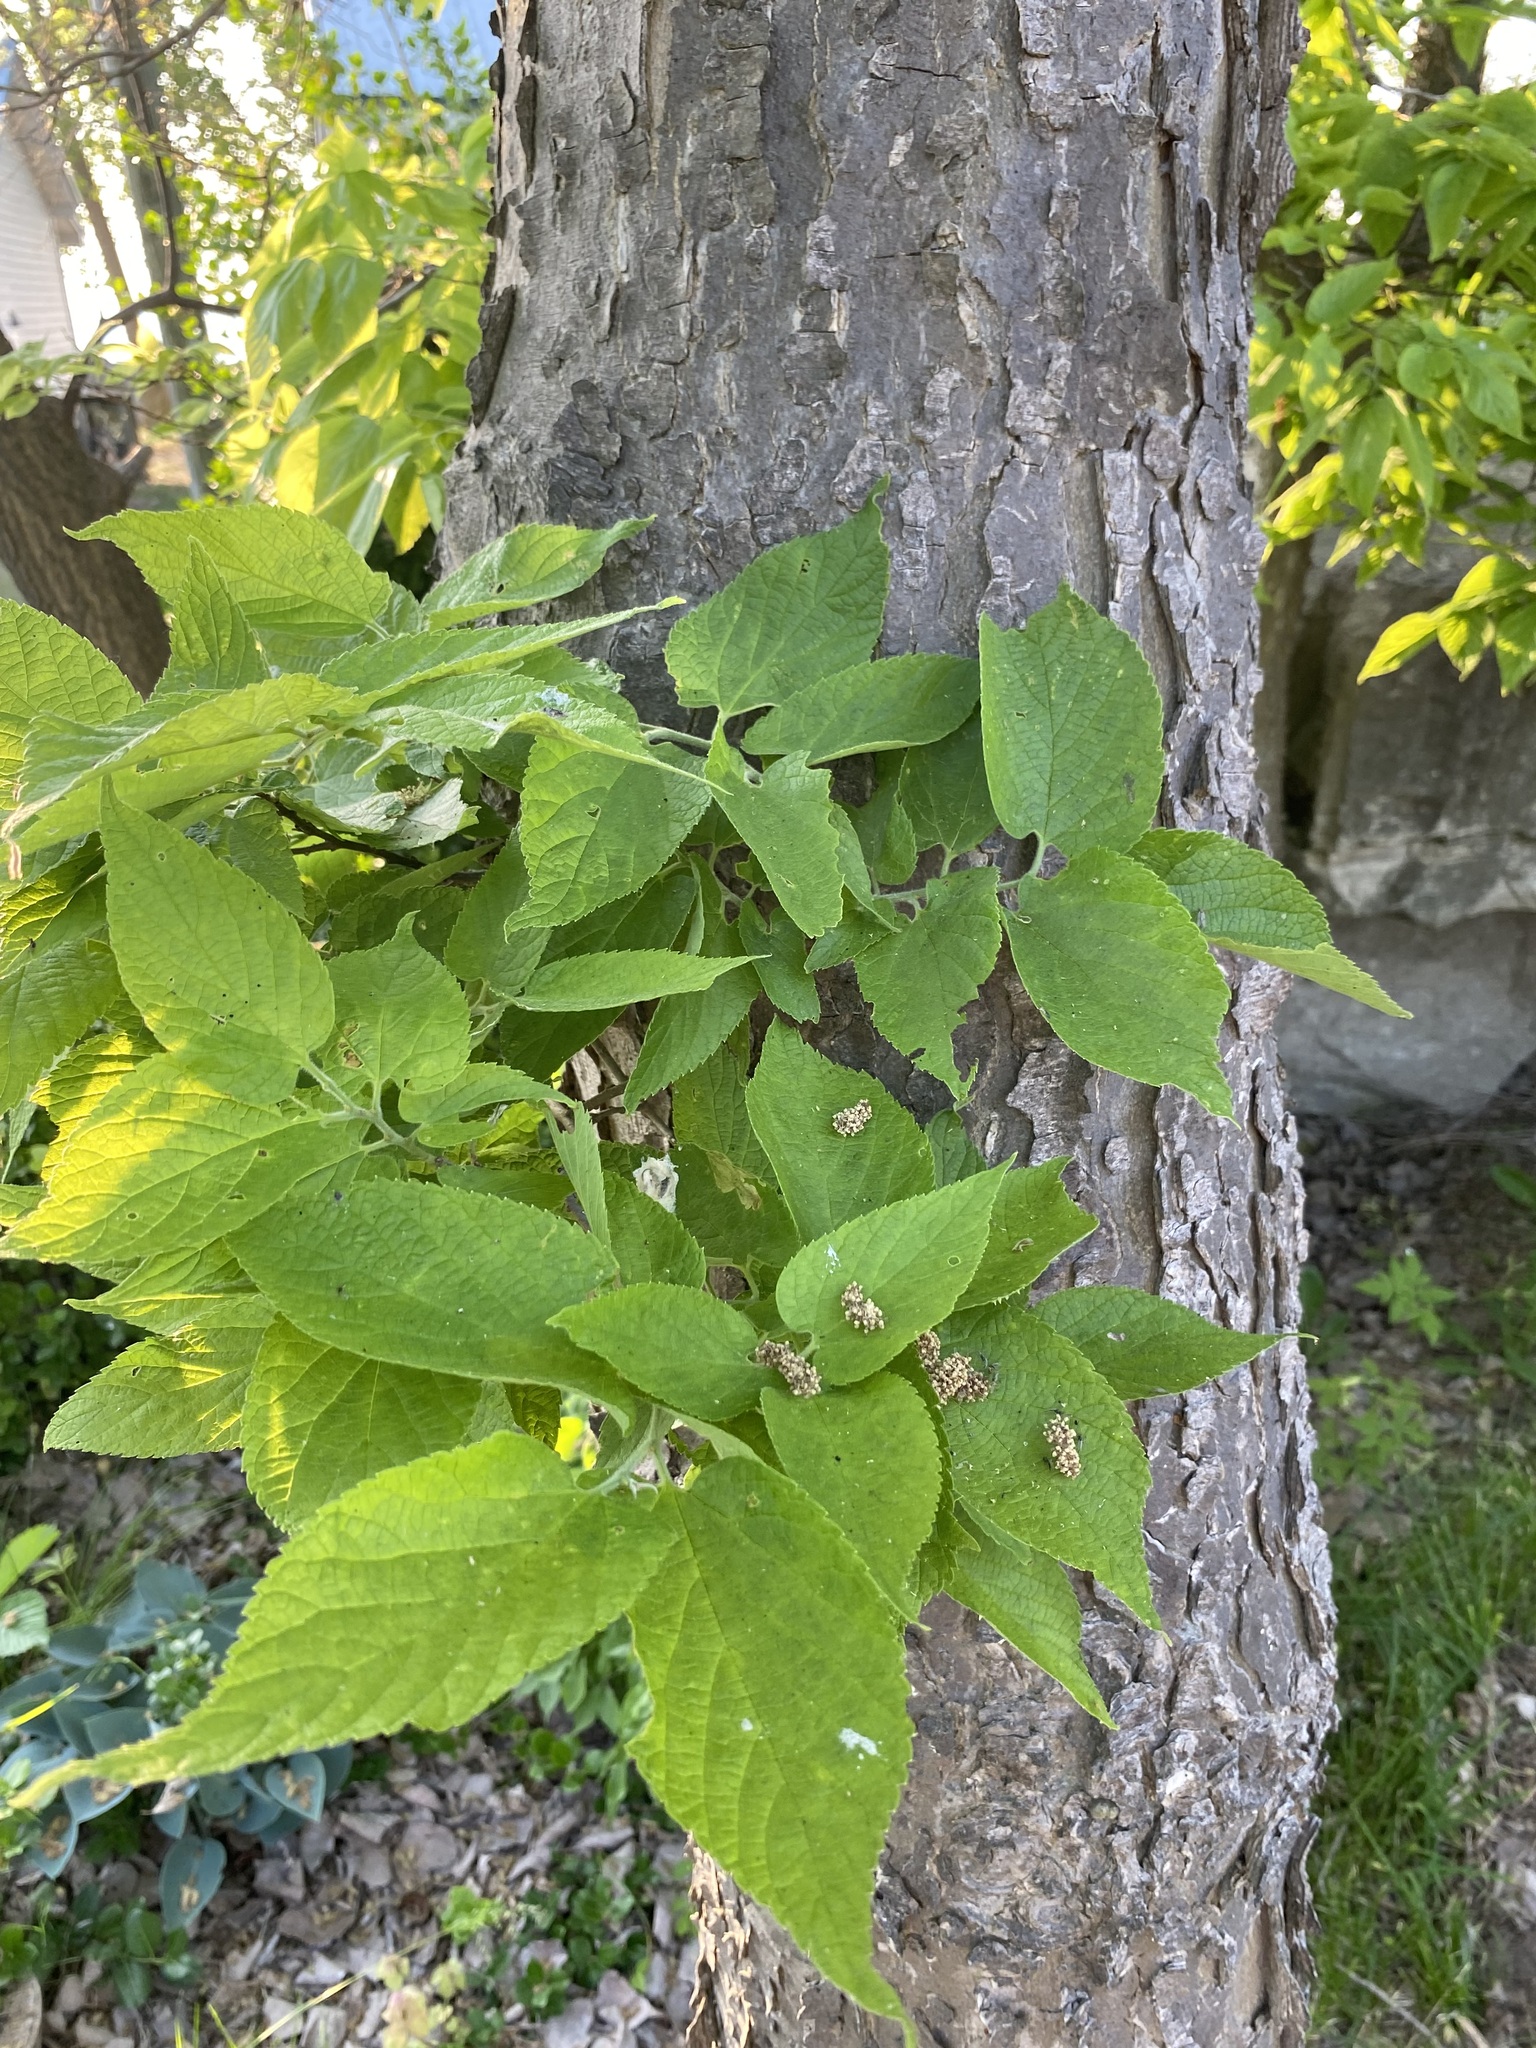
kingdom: Plantae
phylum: Tracheophyta
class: Magnoliopsida
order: Rosales
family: Cannabaceae
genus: Celtis
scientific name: Celtis occidentalis
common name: Common hackberry
